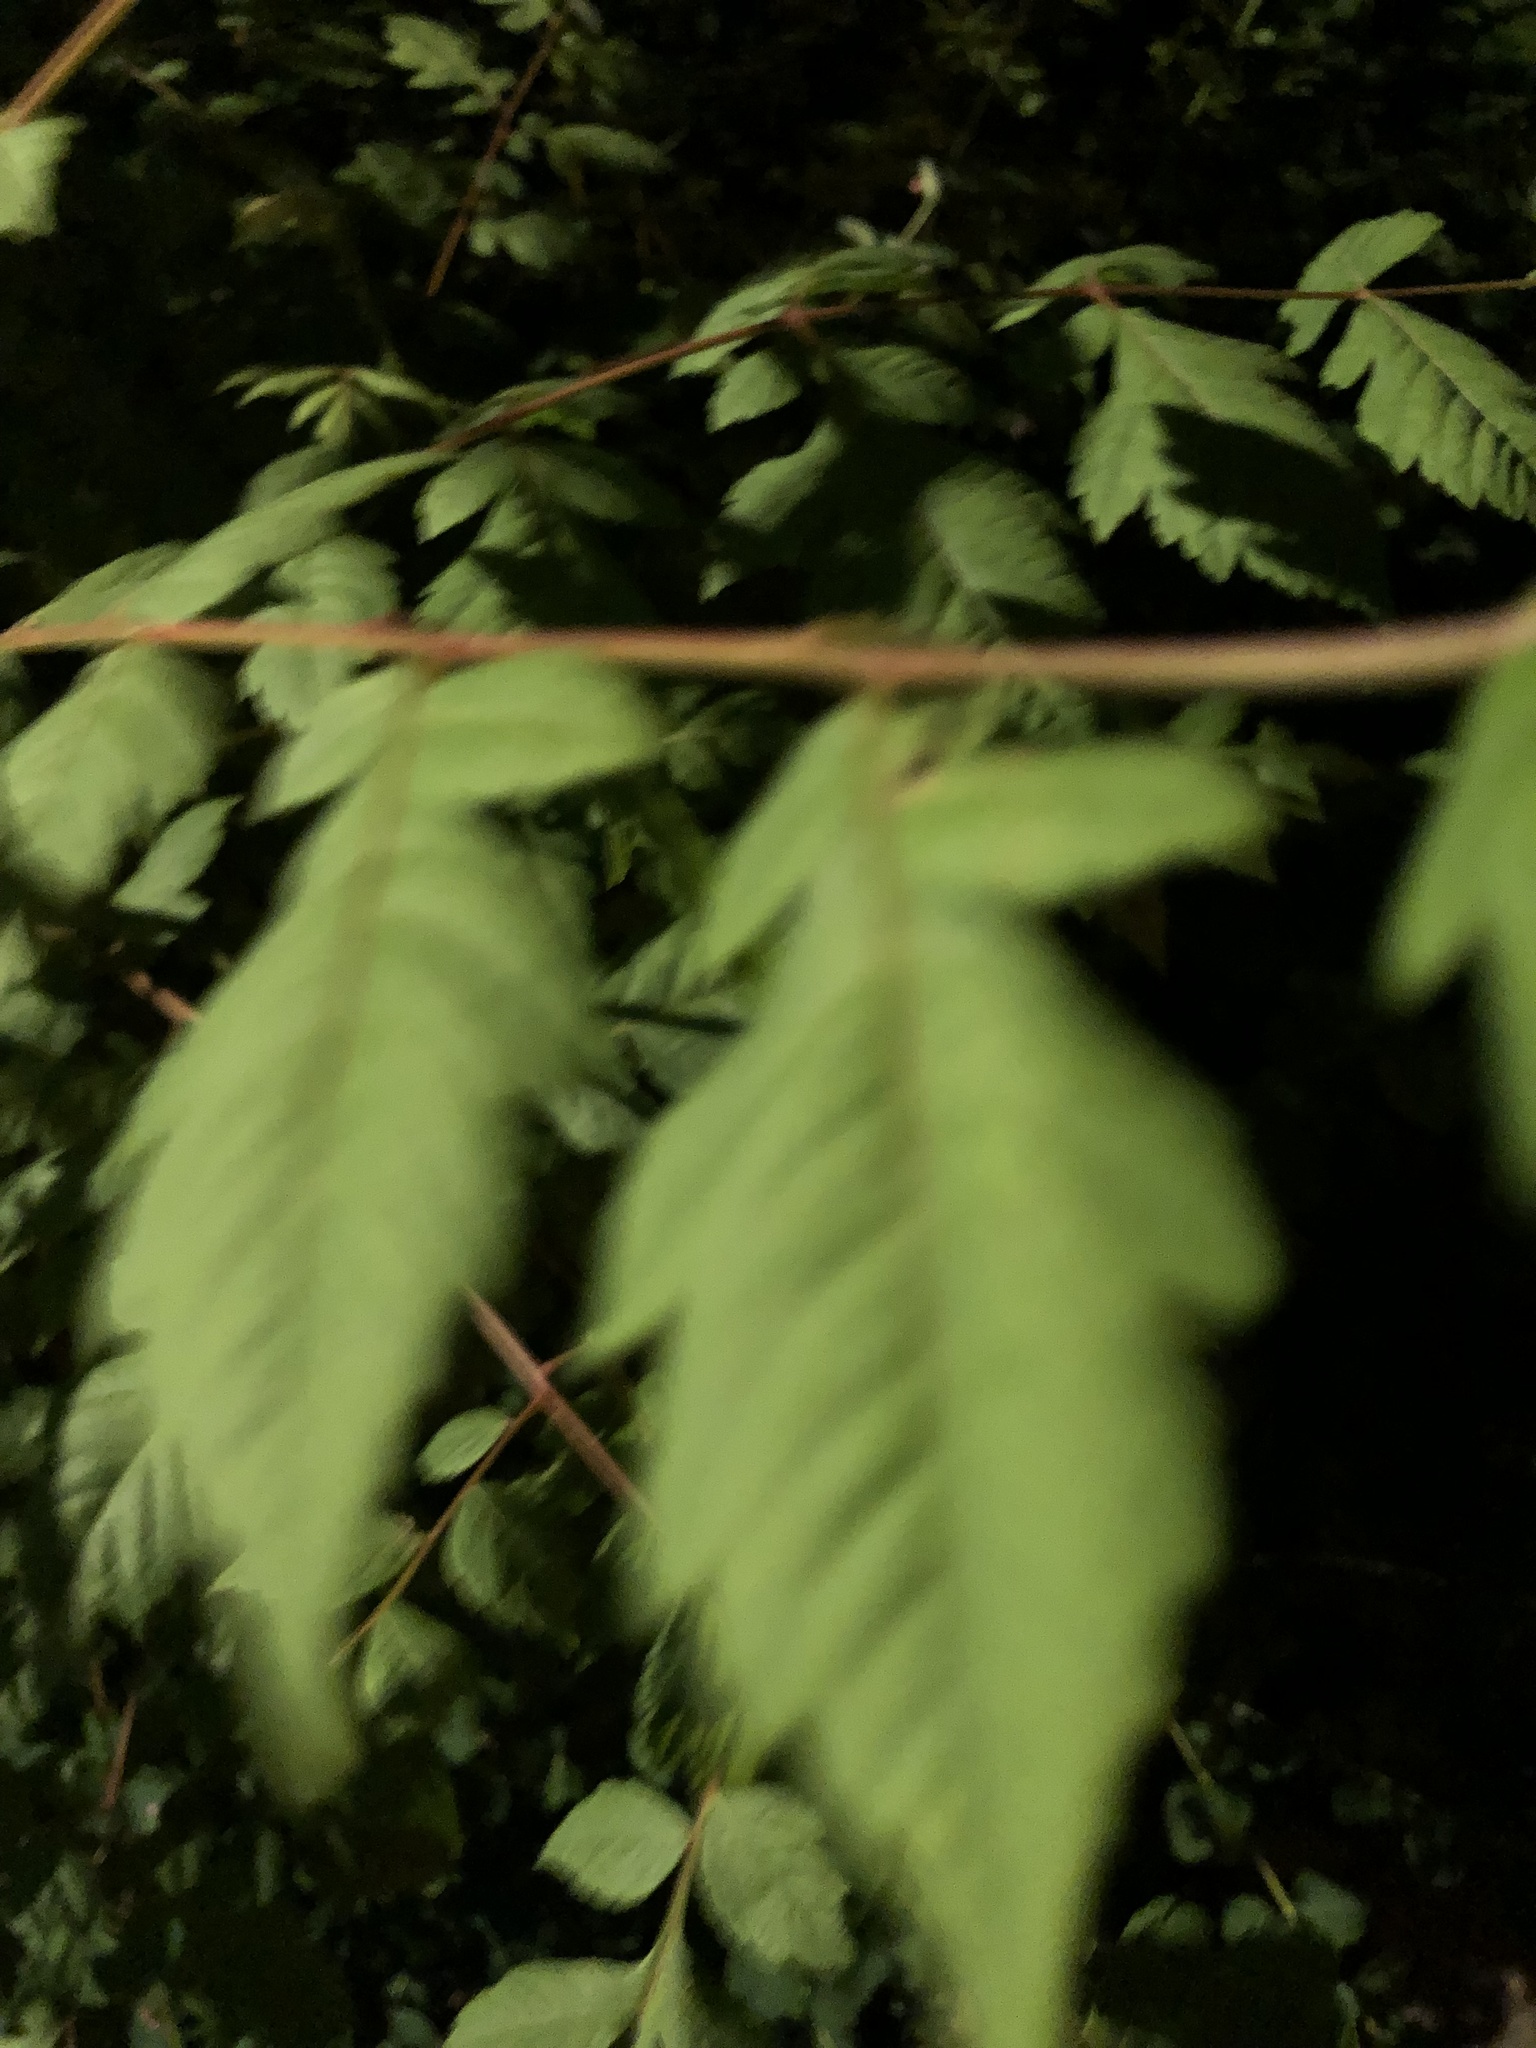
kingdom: Plantae
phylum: Tracheophyta
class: Magnoliopsida
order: Sapindales
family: Sapindaceae
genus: Koelreuteria
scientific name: Koelreuteria paniculata
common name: Pride-of-india
